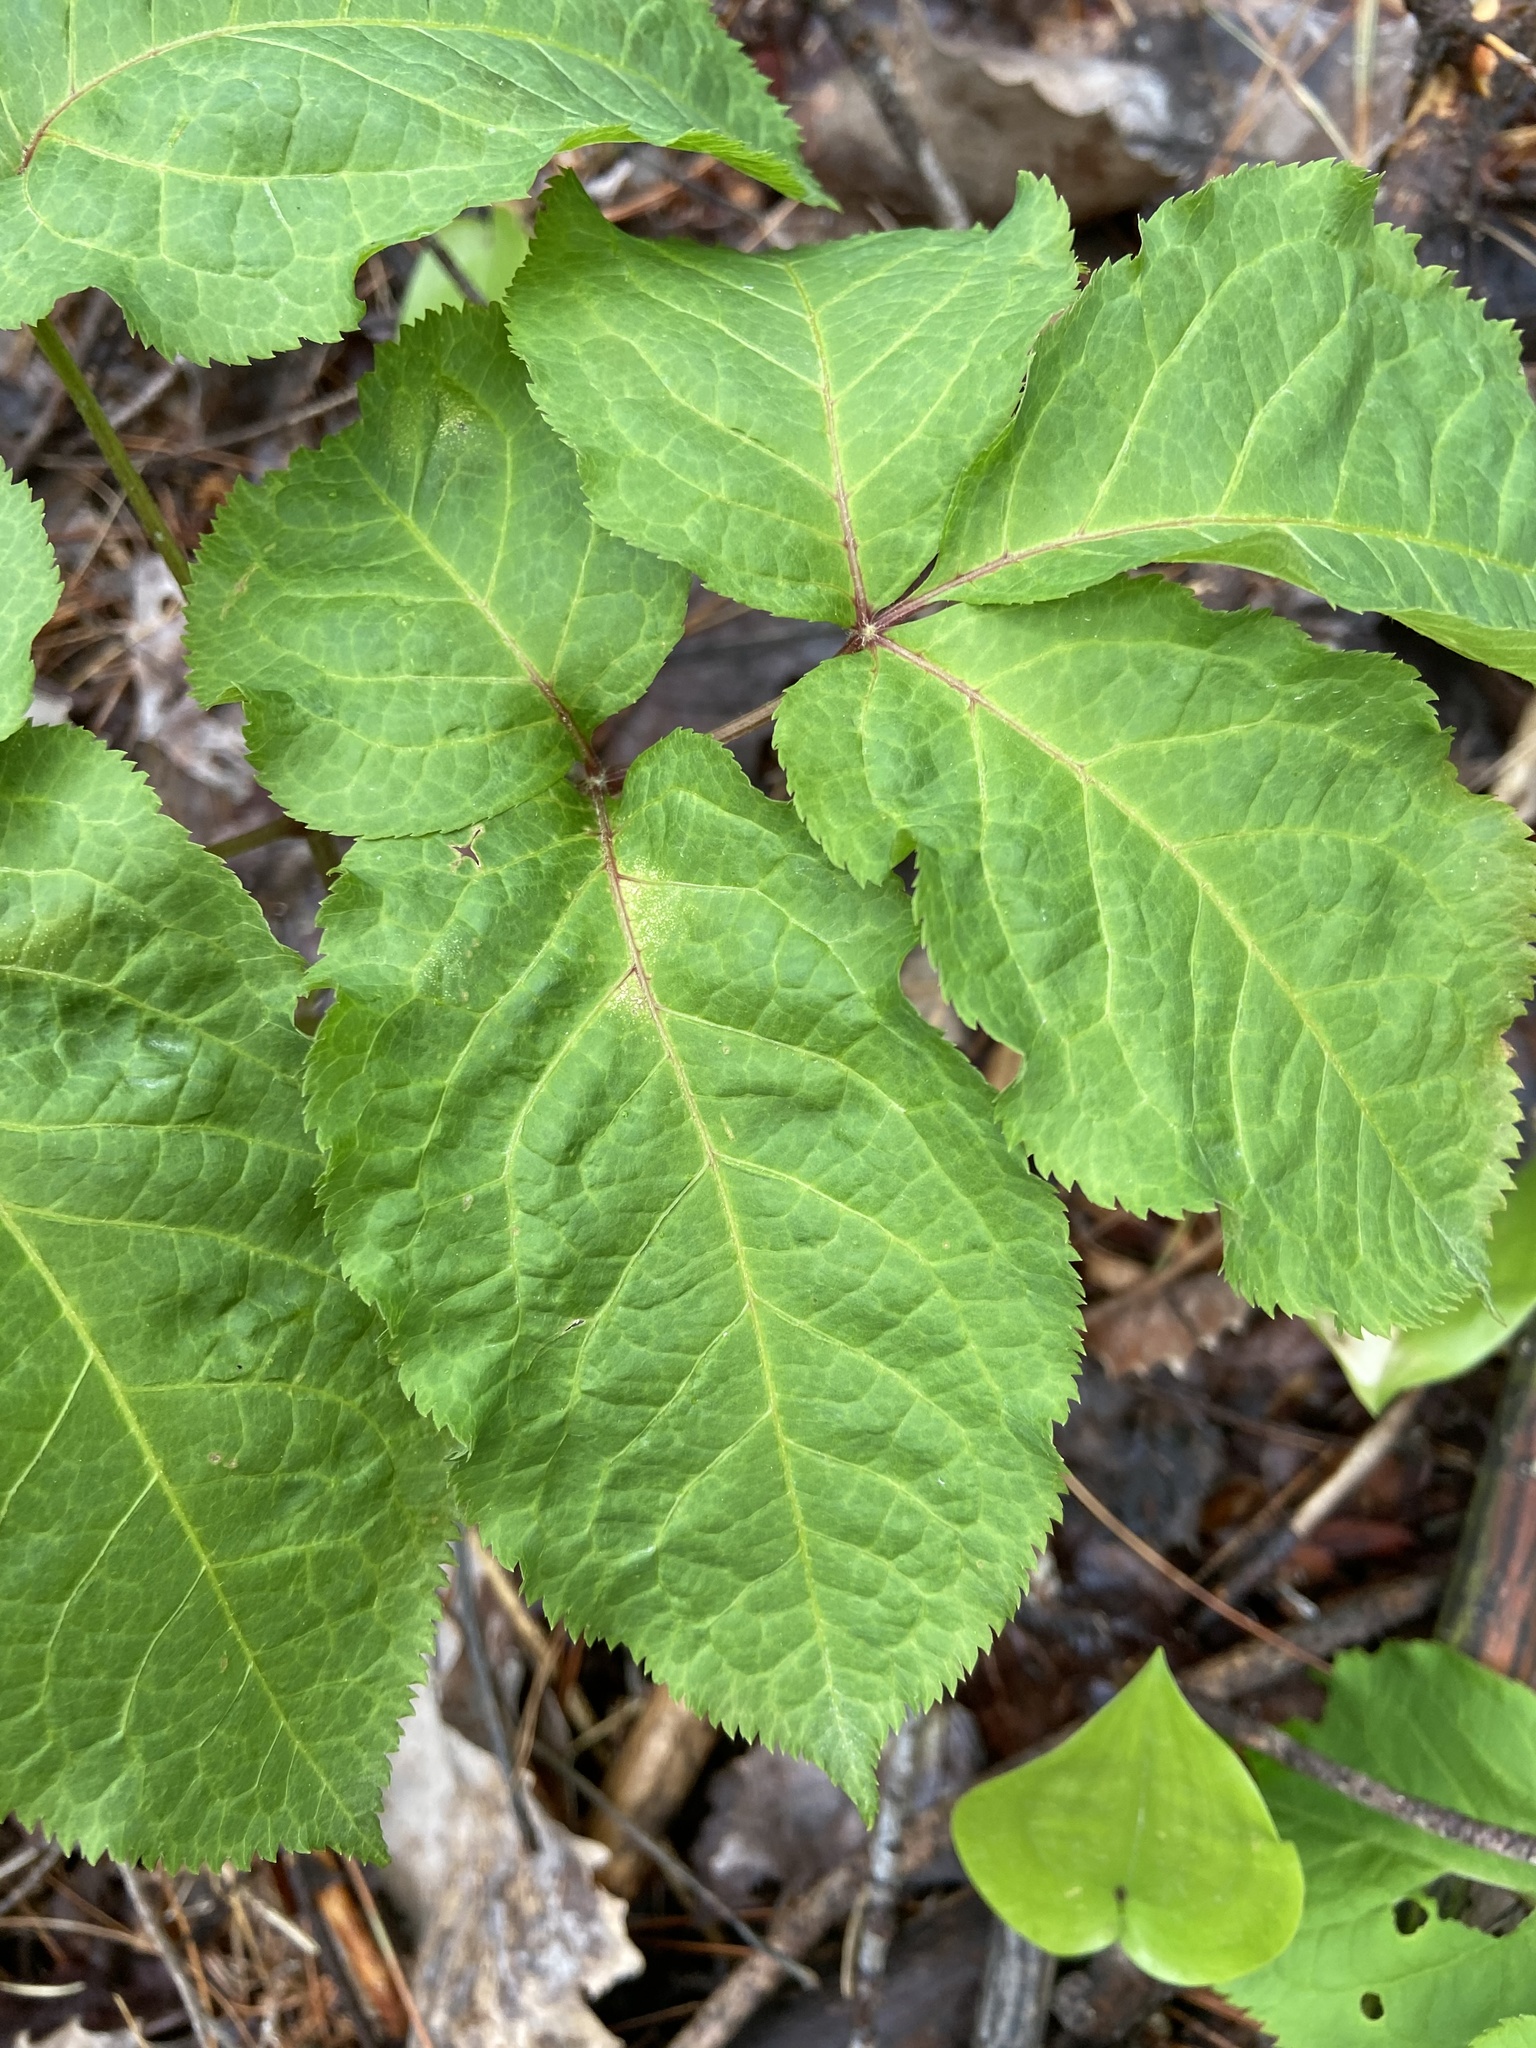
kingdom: Plantae
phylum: Tracheophyta
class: Magnoliopsida
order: Apiales
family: Araliaceae
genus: Aralia
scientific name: Aralia nudicaulis
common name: Wild sarsaparilla
